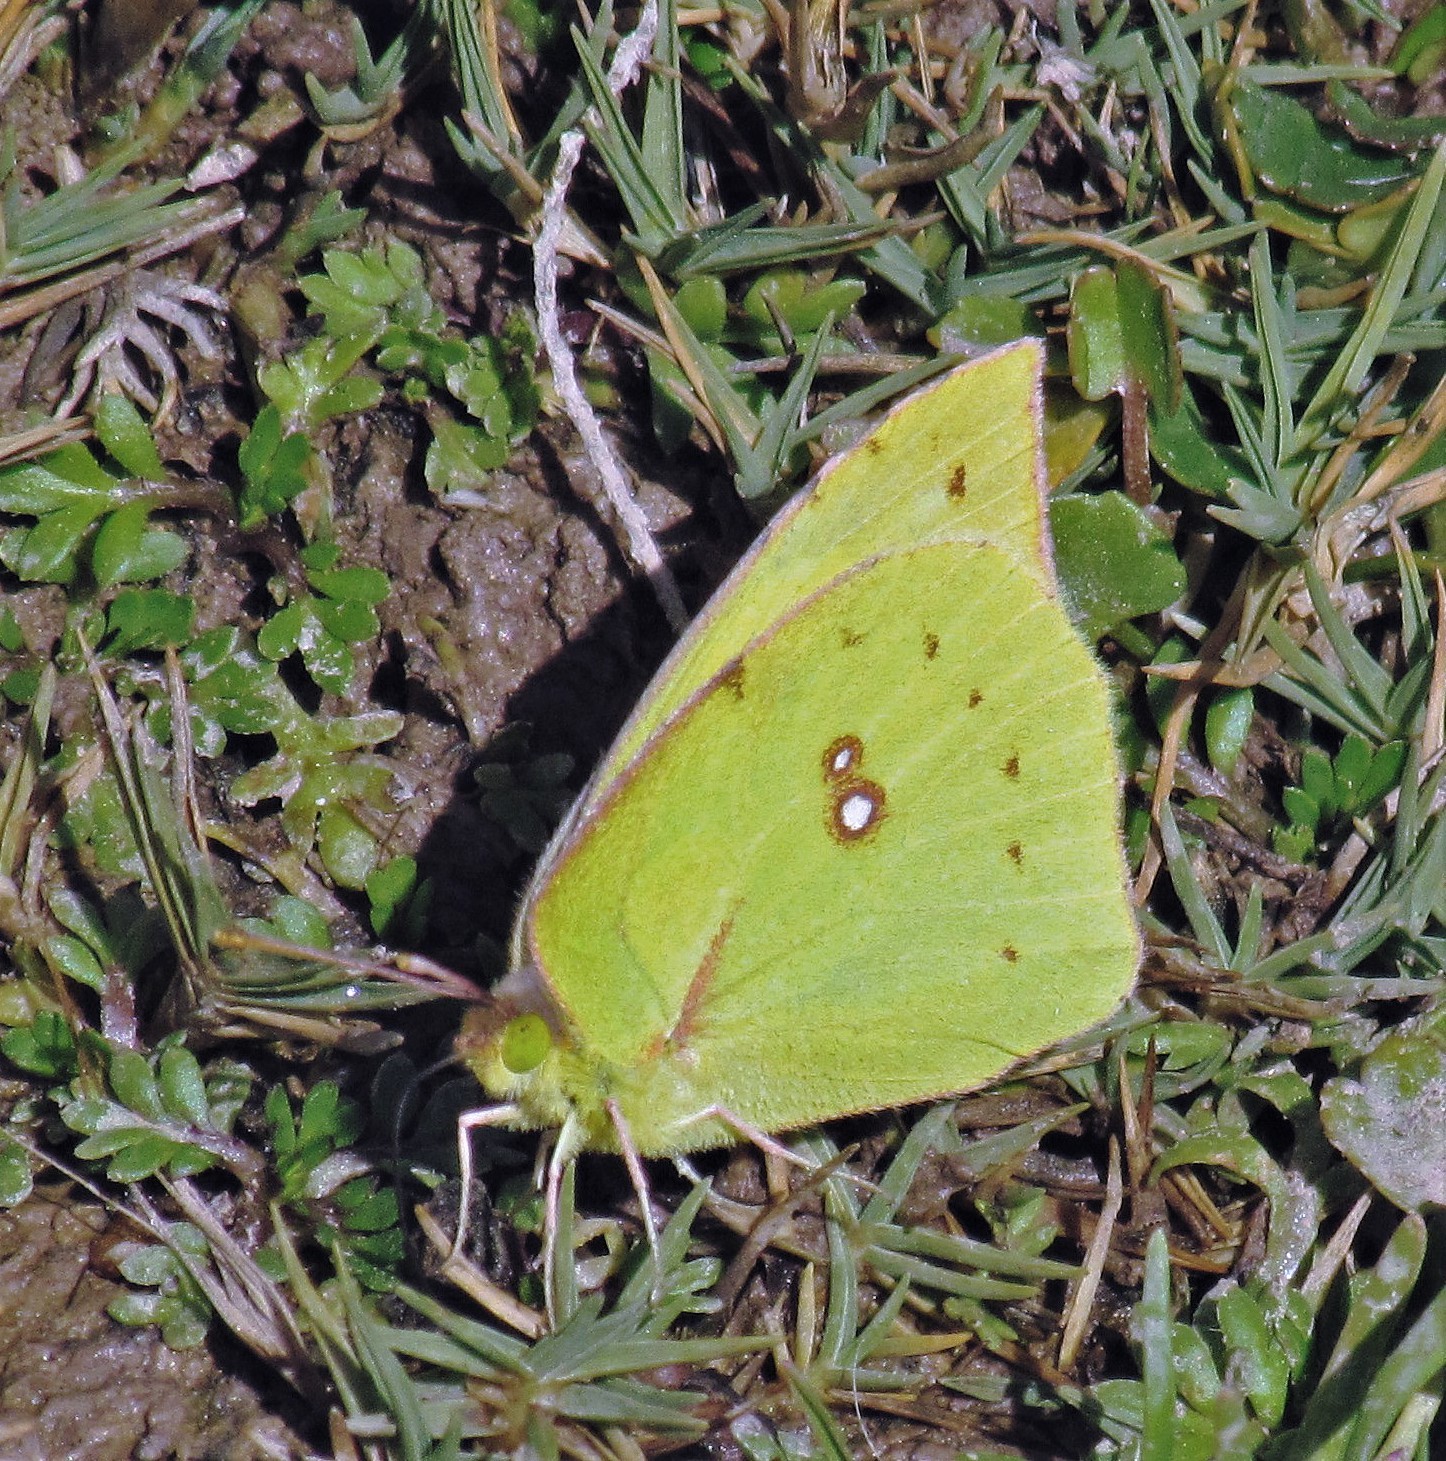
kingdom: Animalia
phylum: Arthropoda
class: Insecta
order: Lepidoptera
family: Pieridae
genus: Zerene
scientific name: Zerene cesonia
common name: Southern dogface
